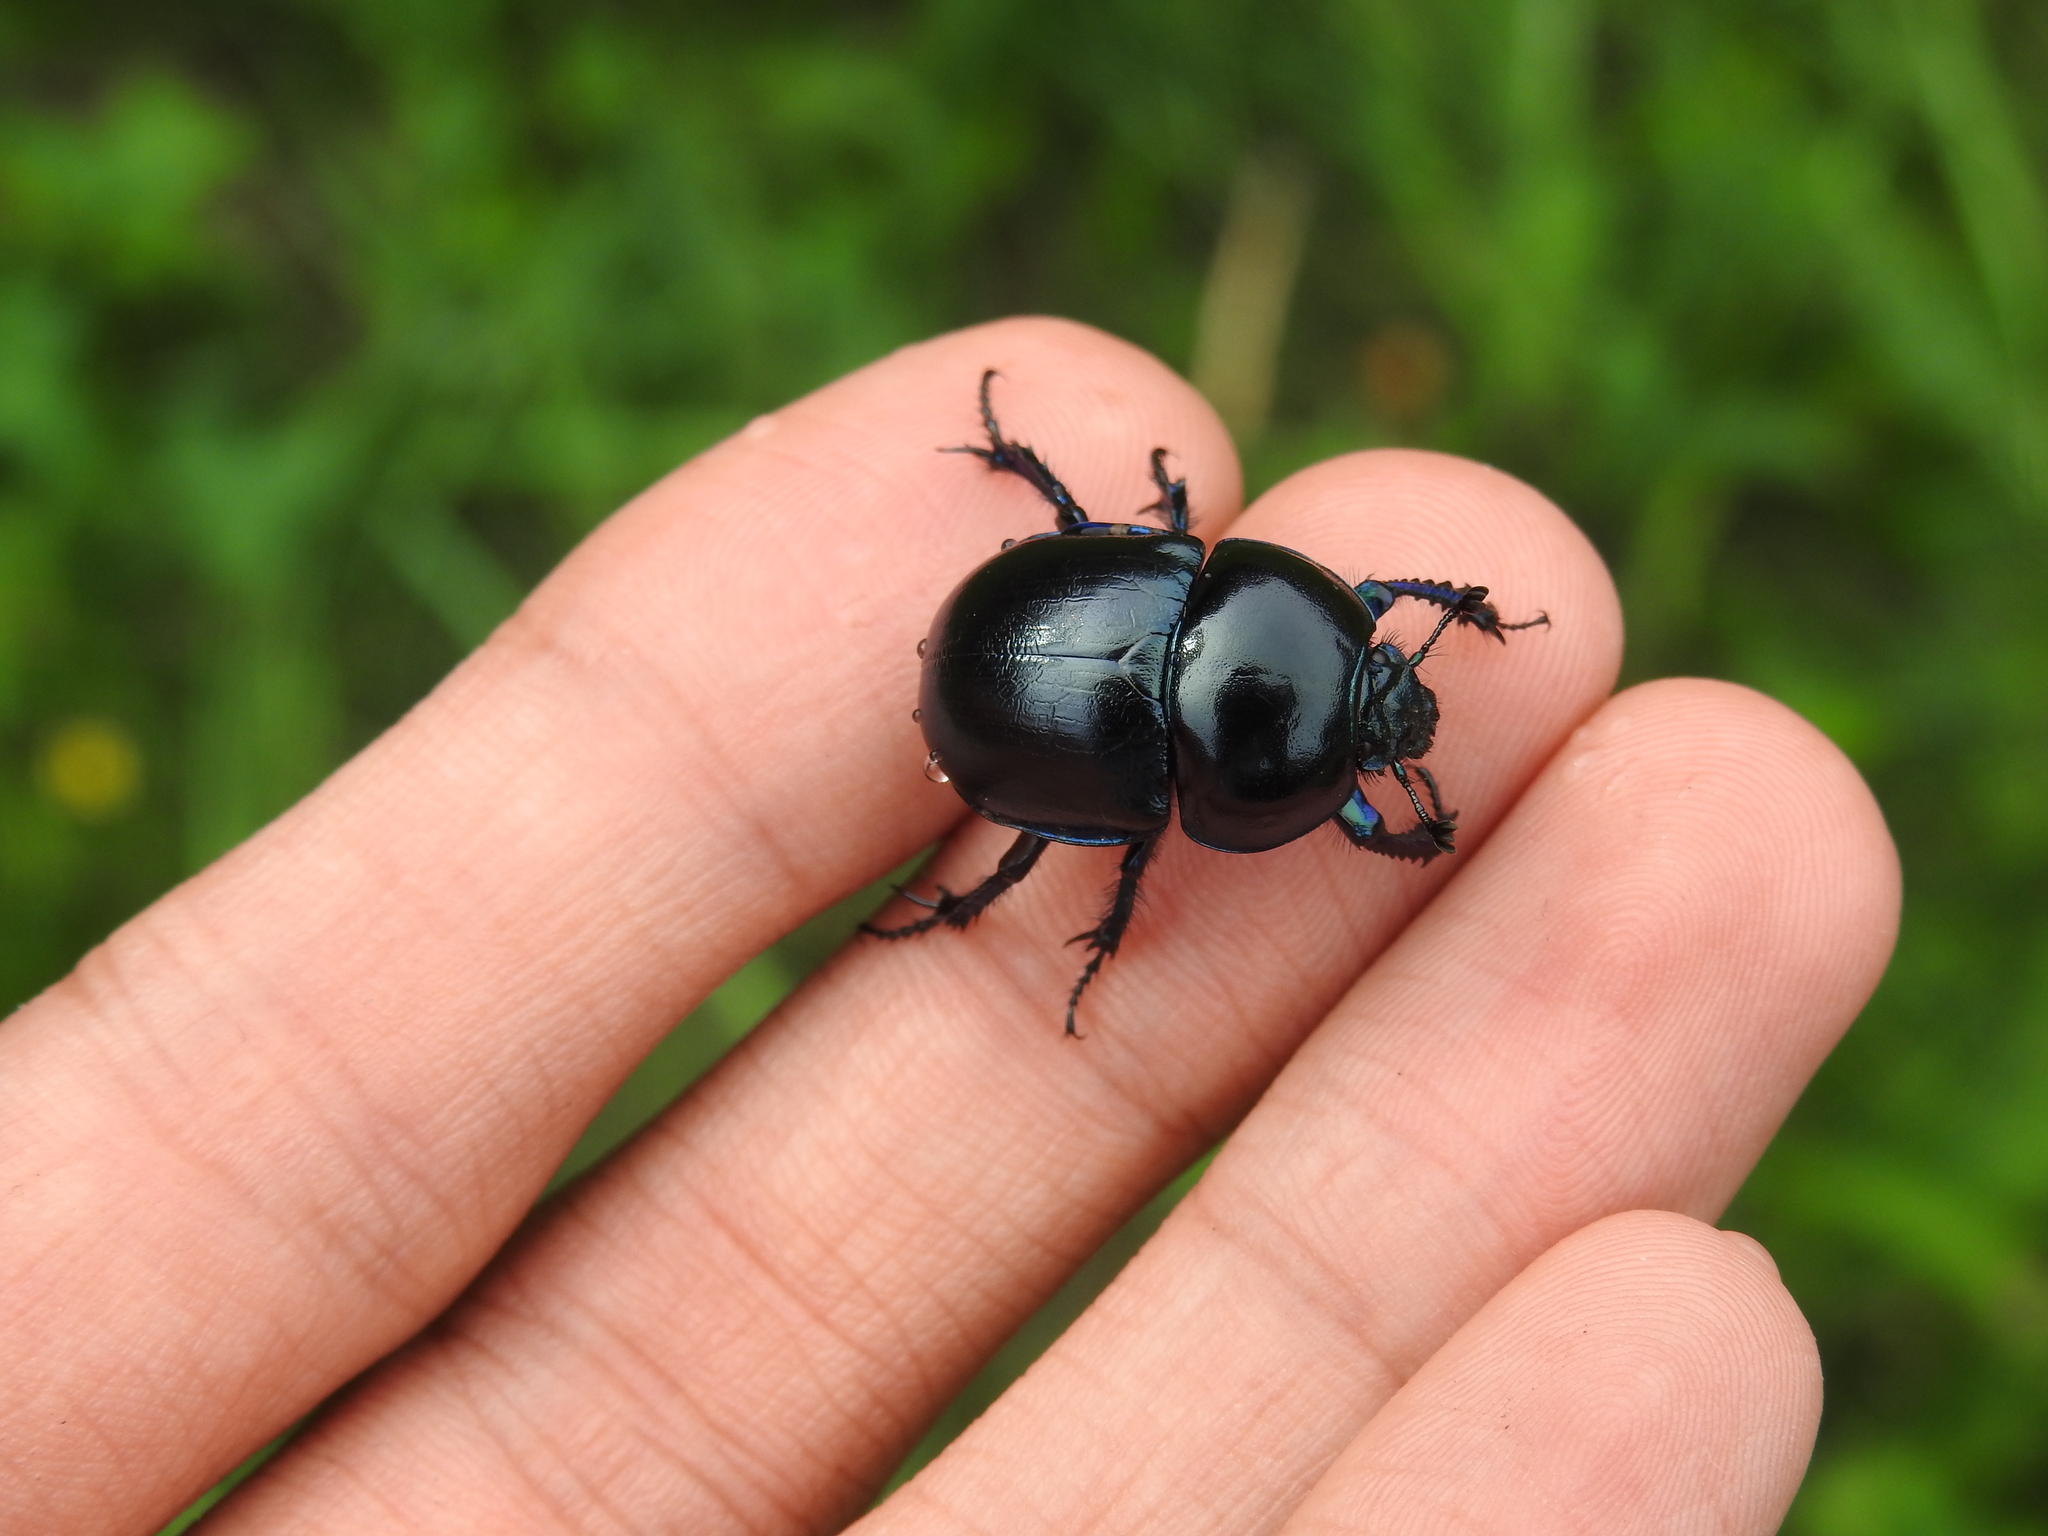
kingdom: Animalia
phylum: Arthropoda
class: Insecta
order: Coleoptera
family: Geotrupidae
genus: Trypocopris
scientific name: Trypocopris vernalis
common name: Spring dumbledor
